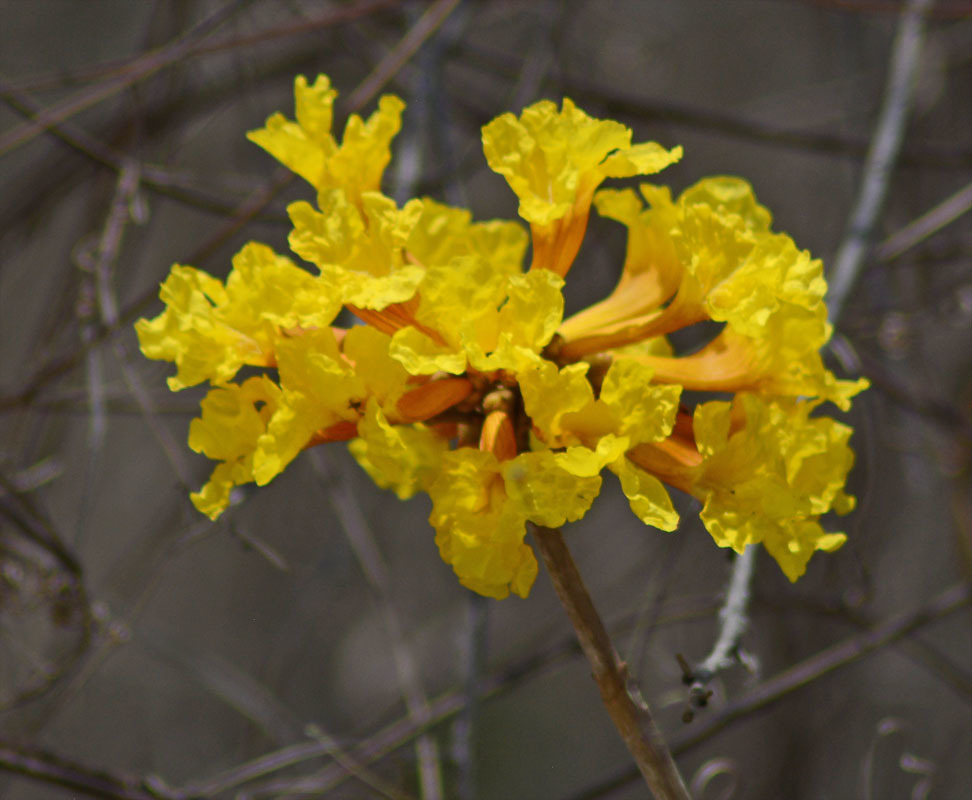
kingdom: Plantae
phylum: Tracheophyta
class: Magnoliopsida
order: Lamiales
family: Bignoniaceae
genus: Handroanthus
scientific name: Handroanthus chrysanthus
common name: Trumpet trees
